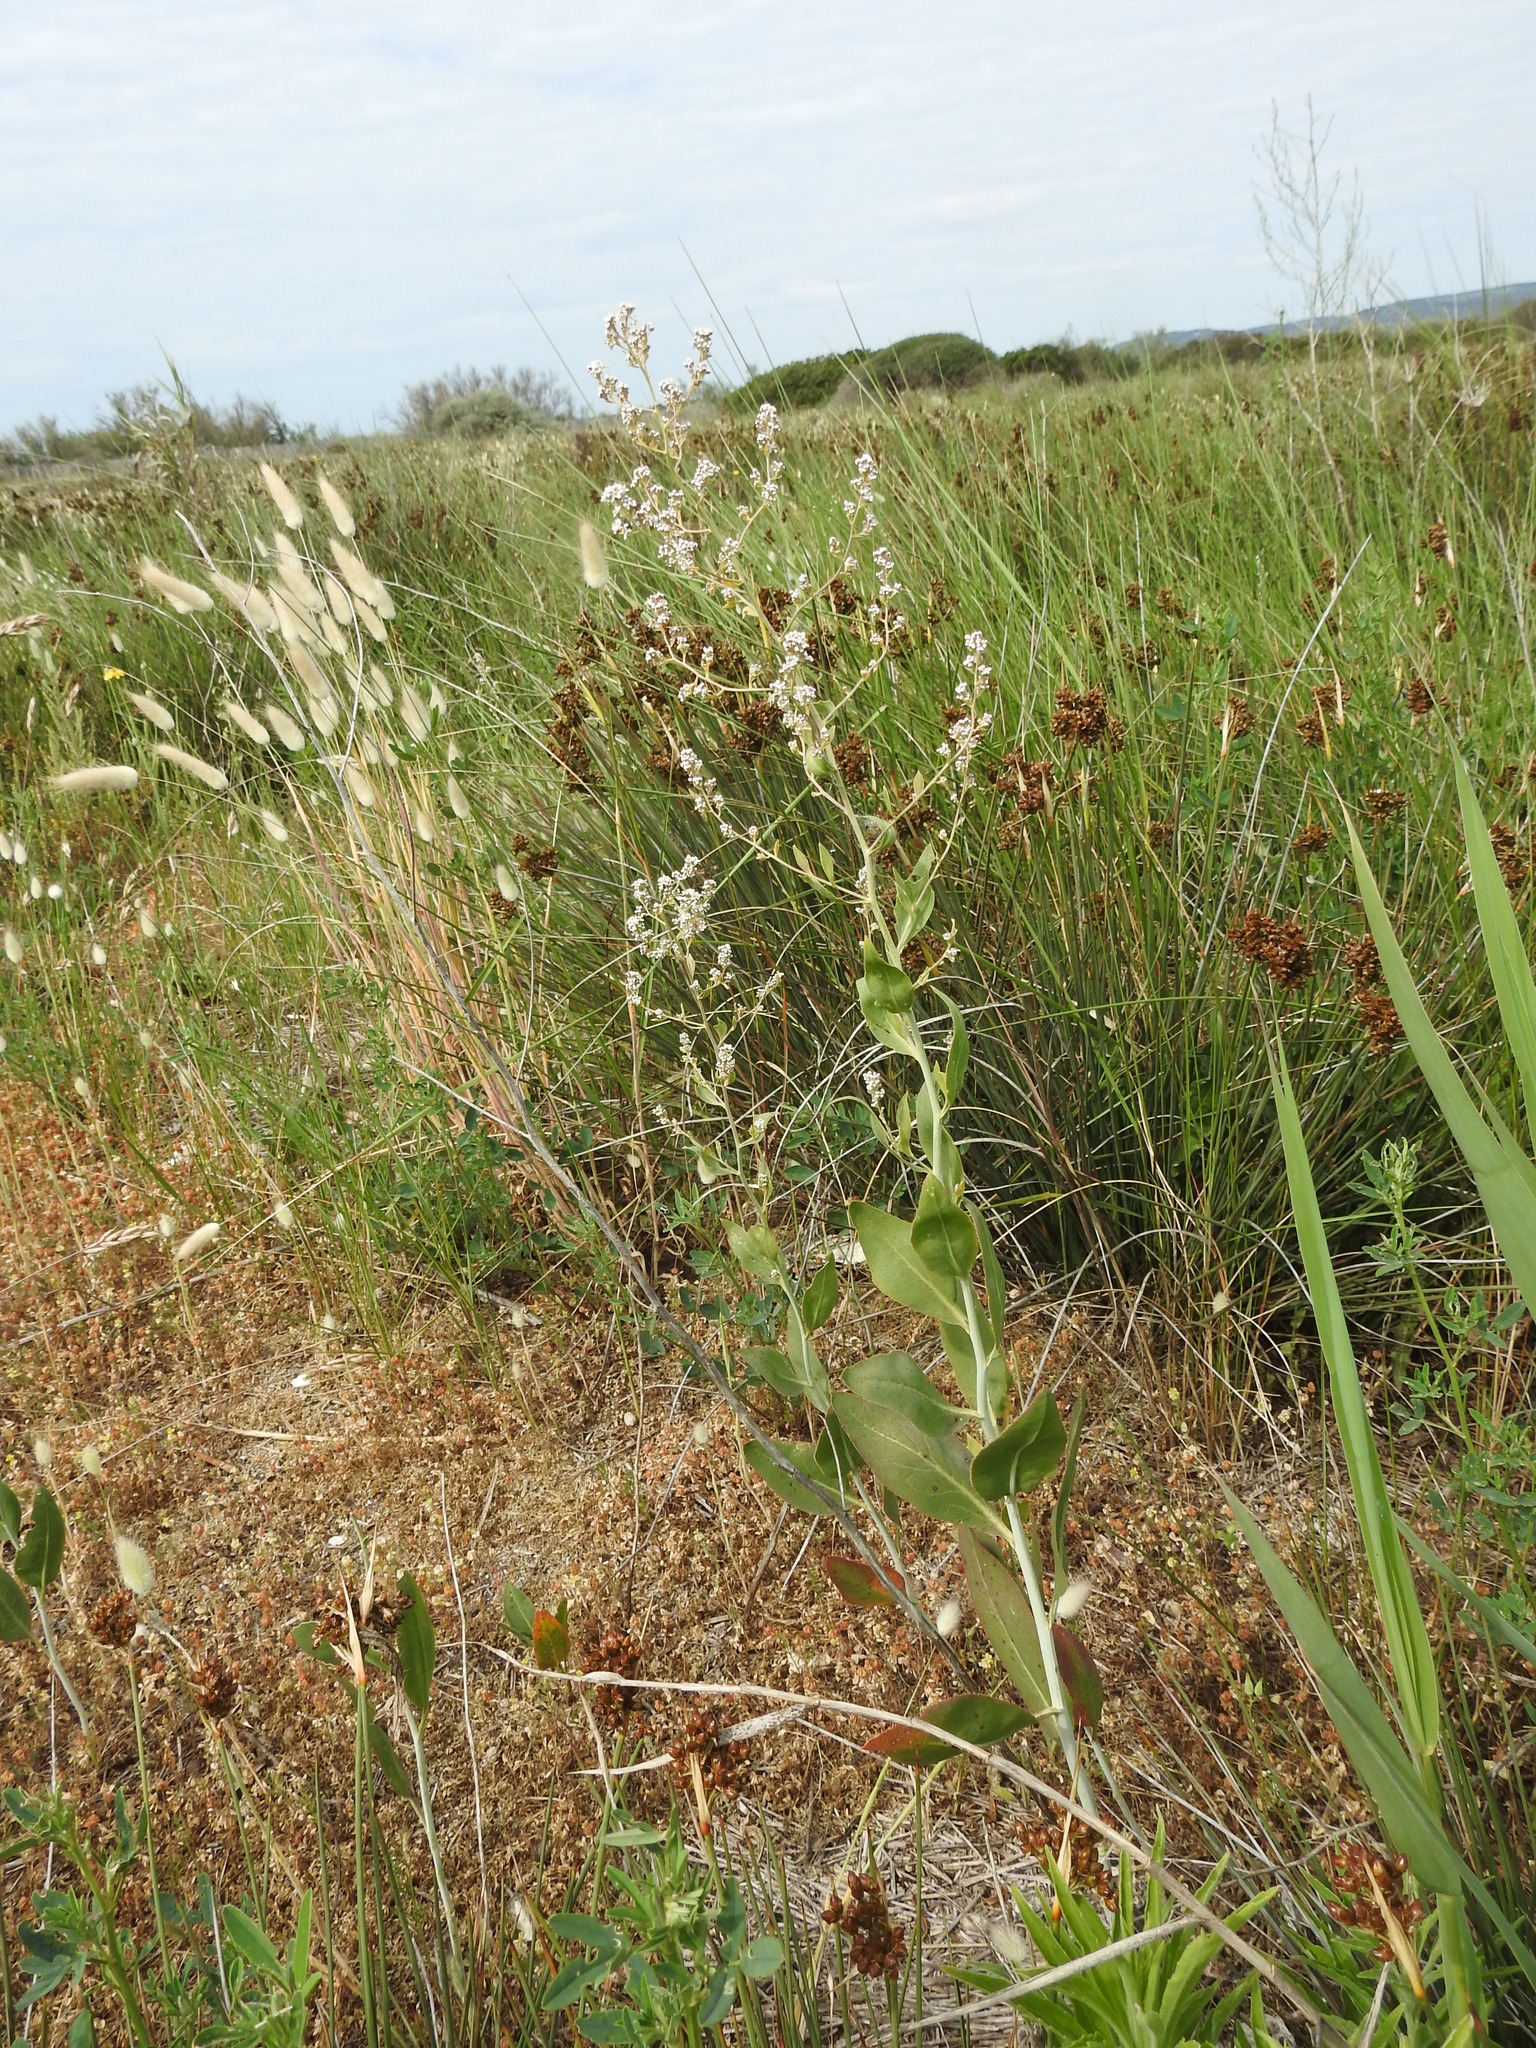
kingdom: Plantae
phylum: Tracheophyta
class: Magnoliopsida
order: Brassicales
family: Brassicaceae
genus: Lepidium
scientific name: Lepidium latifolium
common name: Dittander
